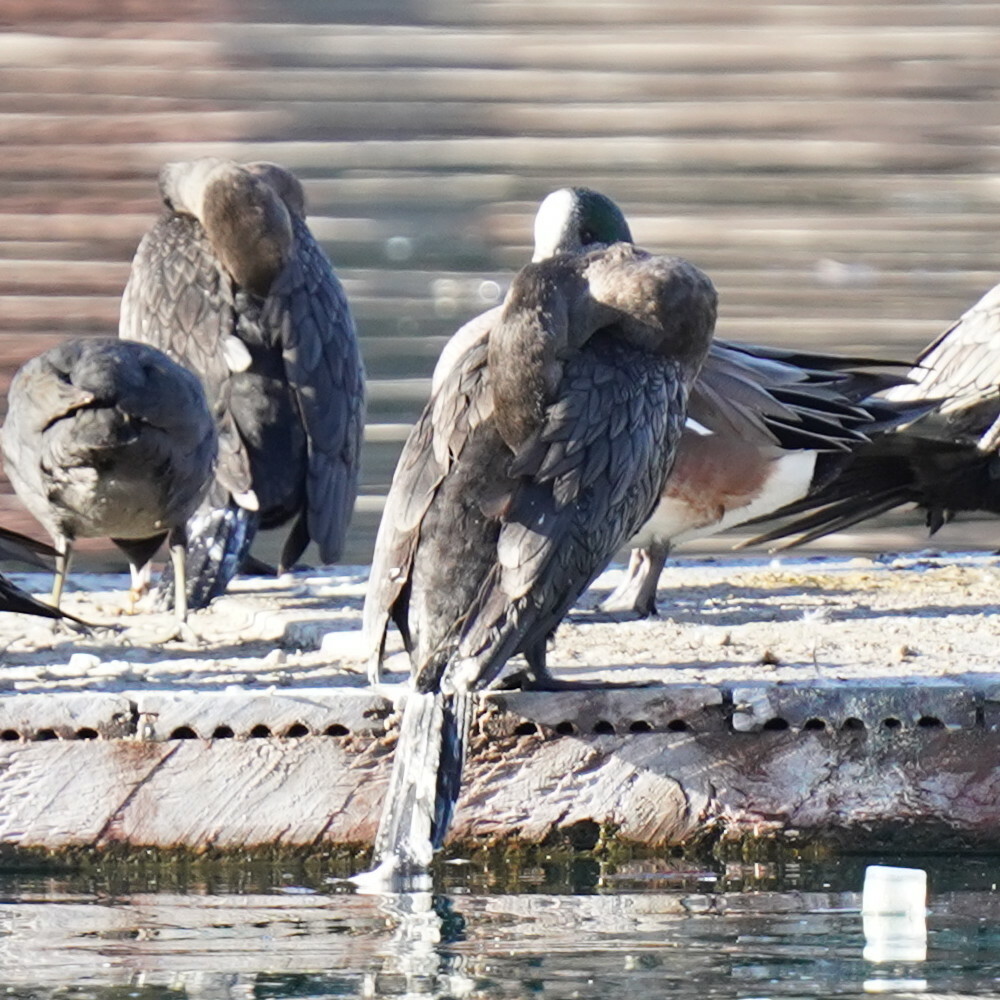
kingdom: Animalia
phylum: Chordata
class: Aves
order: Suliformes
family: Phalacrocoracidae
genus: Phalacrocorax
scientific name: Phalacrocorax brasilianus
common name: Neotropic cormorant
